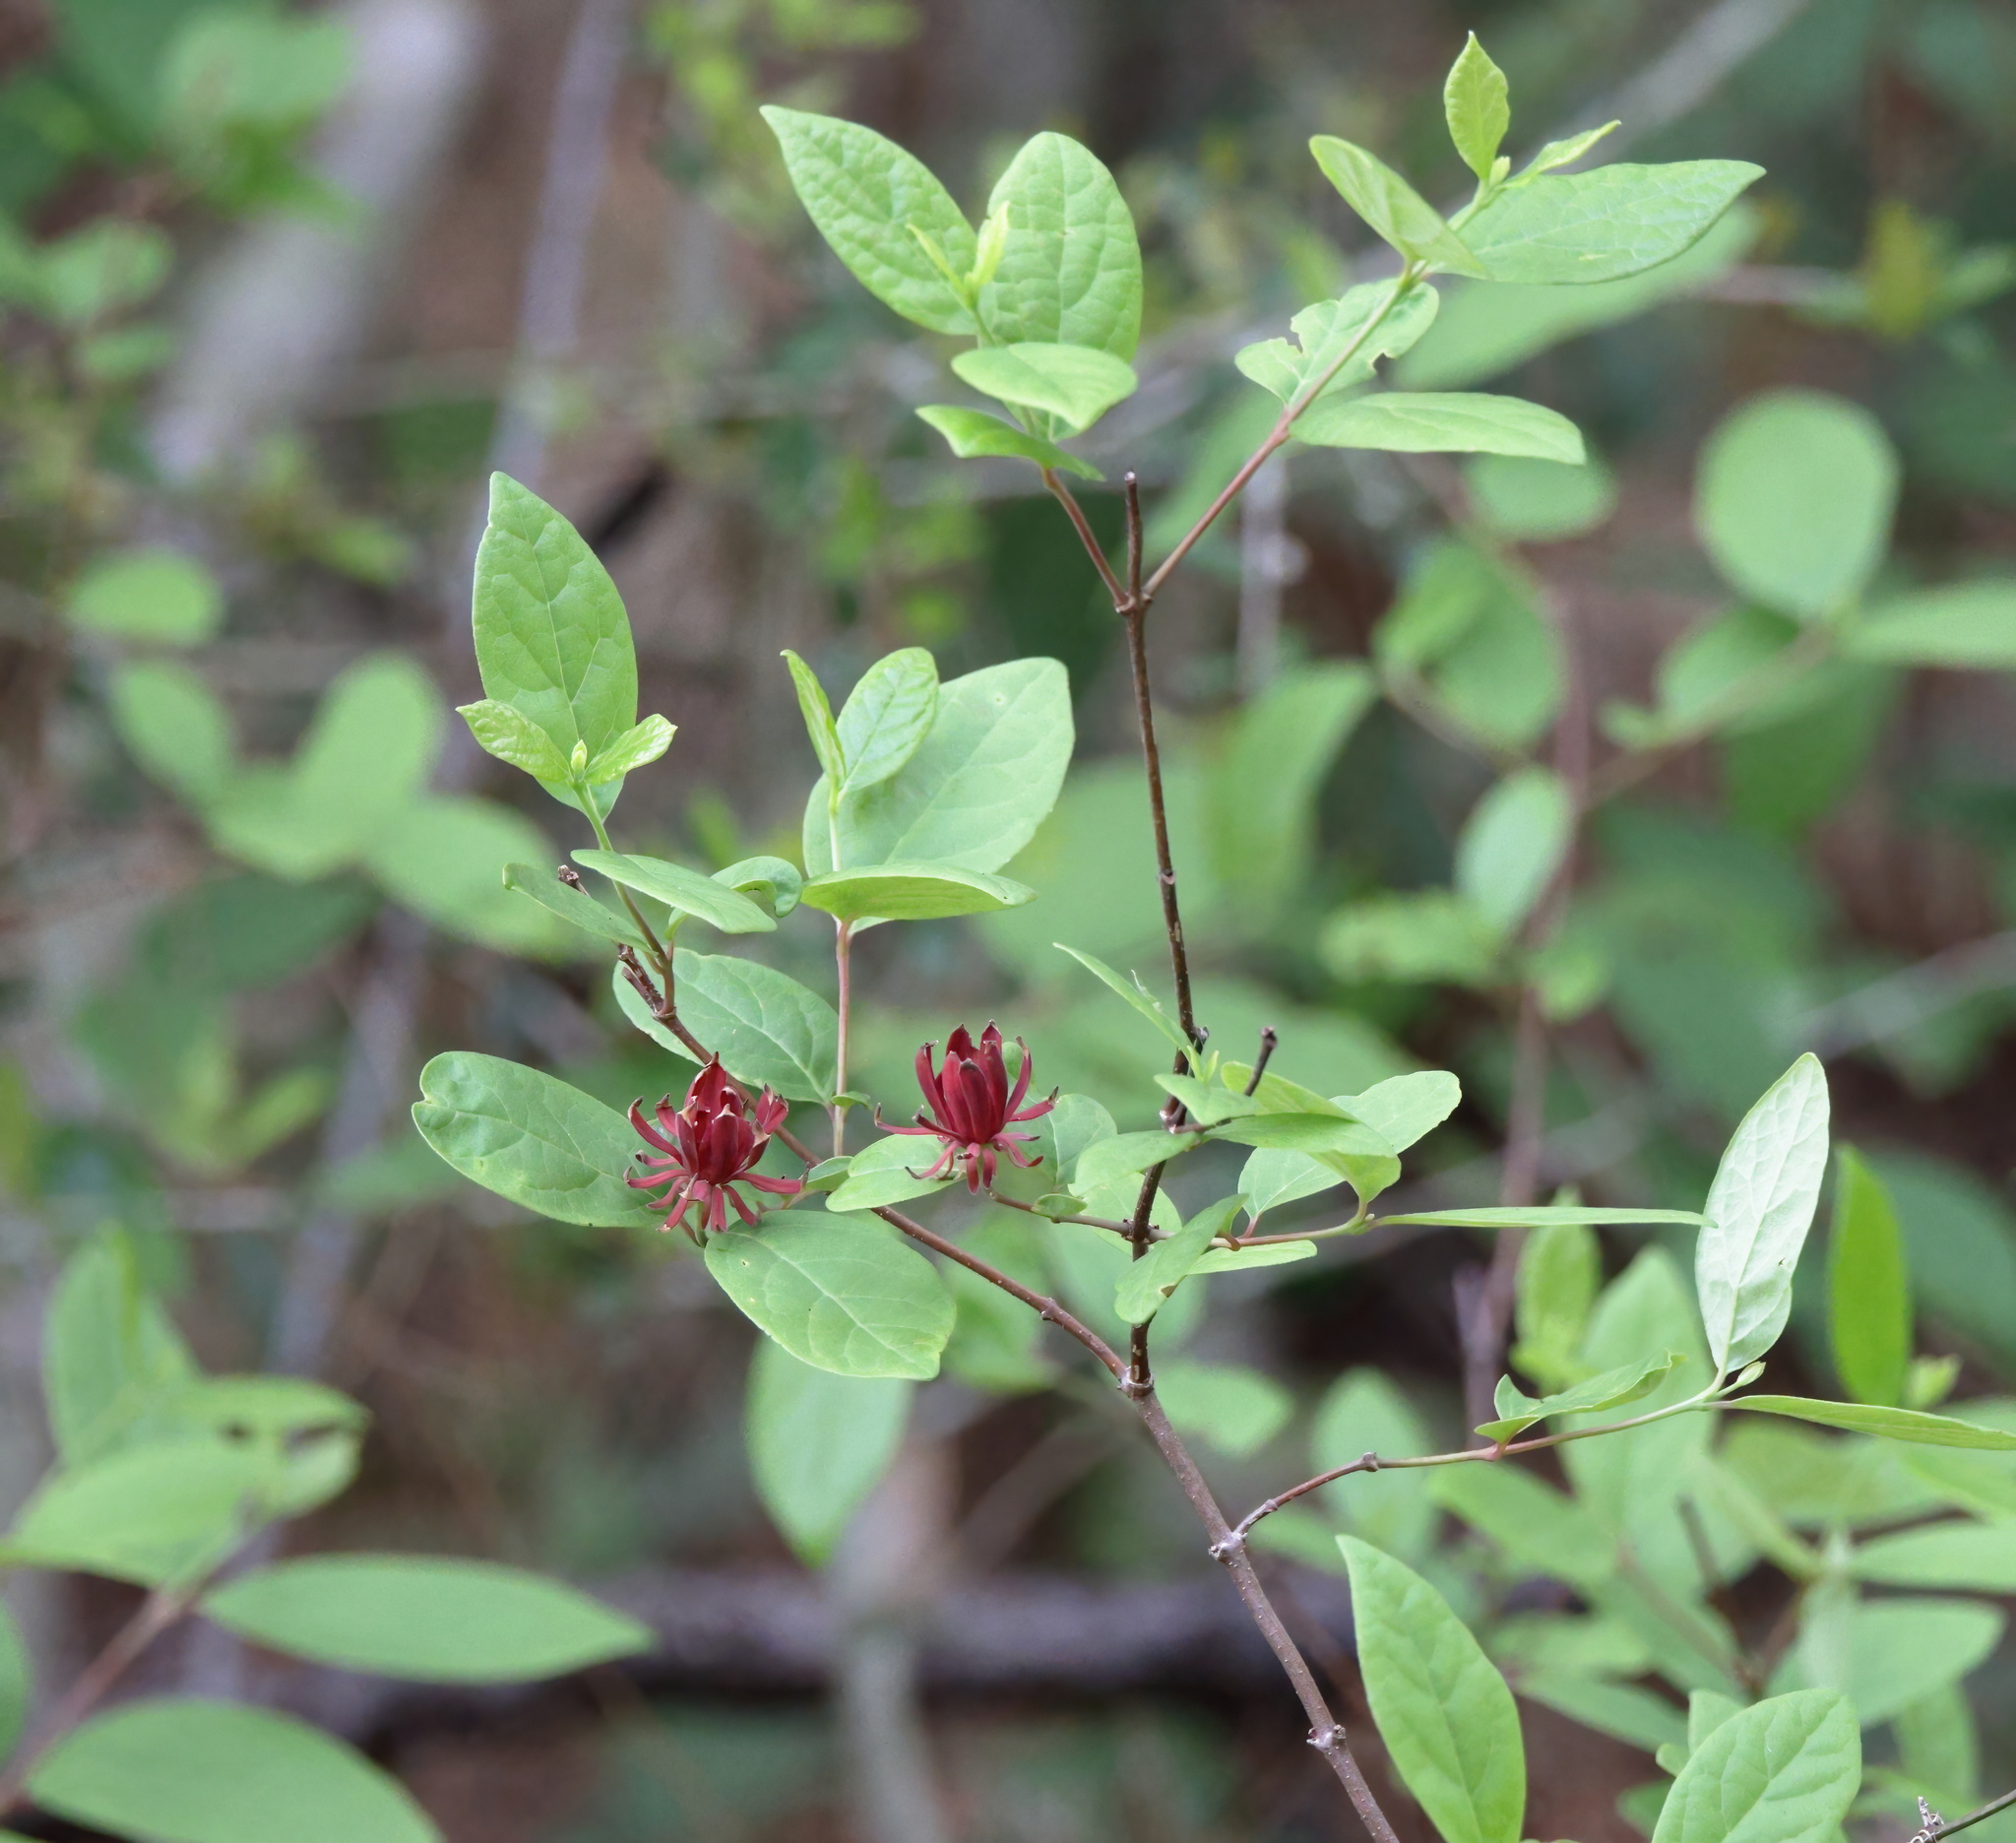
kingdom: Plantae
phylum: Tracheophyta
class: Magnoliopsida
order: Laurales
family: Calycanthaceae
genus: Calycanthus
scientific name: Calycanthus floridus
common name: Carolina-allspice
